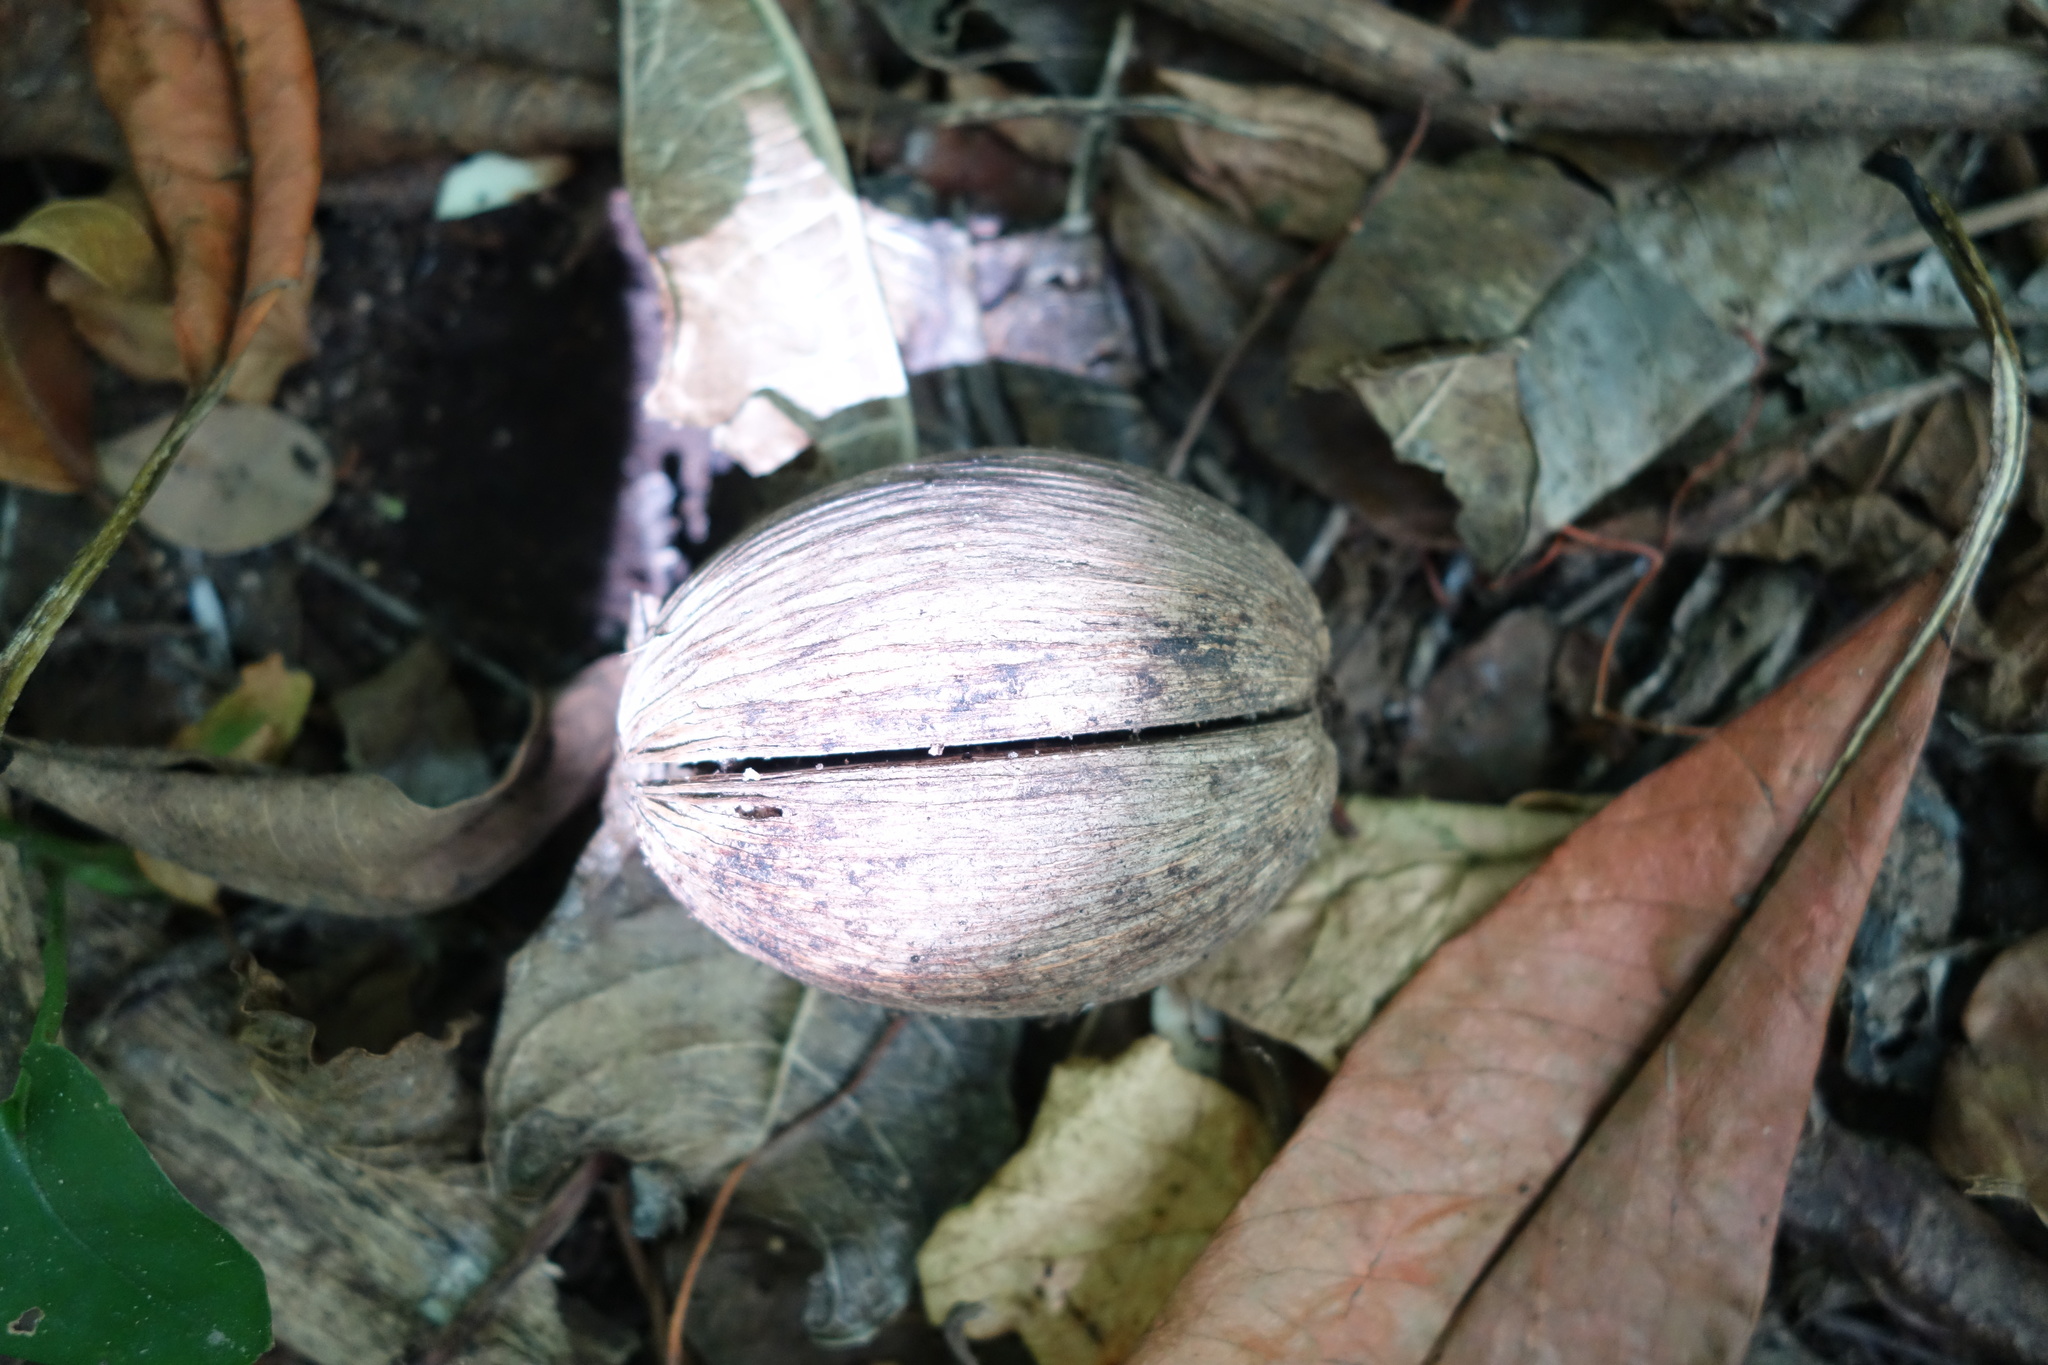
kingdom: Plantae
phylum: Tracheophyta
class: Magnoliopsida
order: Gentianales
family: Apocynaceae
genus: Cerbera
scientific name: Cerbera manghas
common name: Reva
